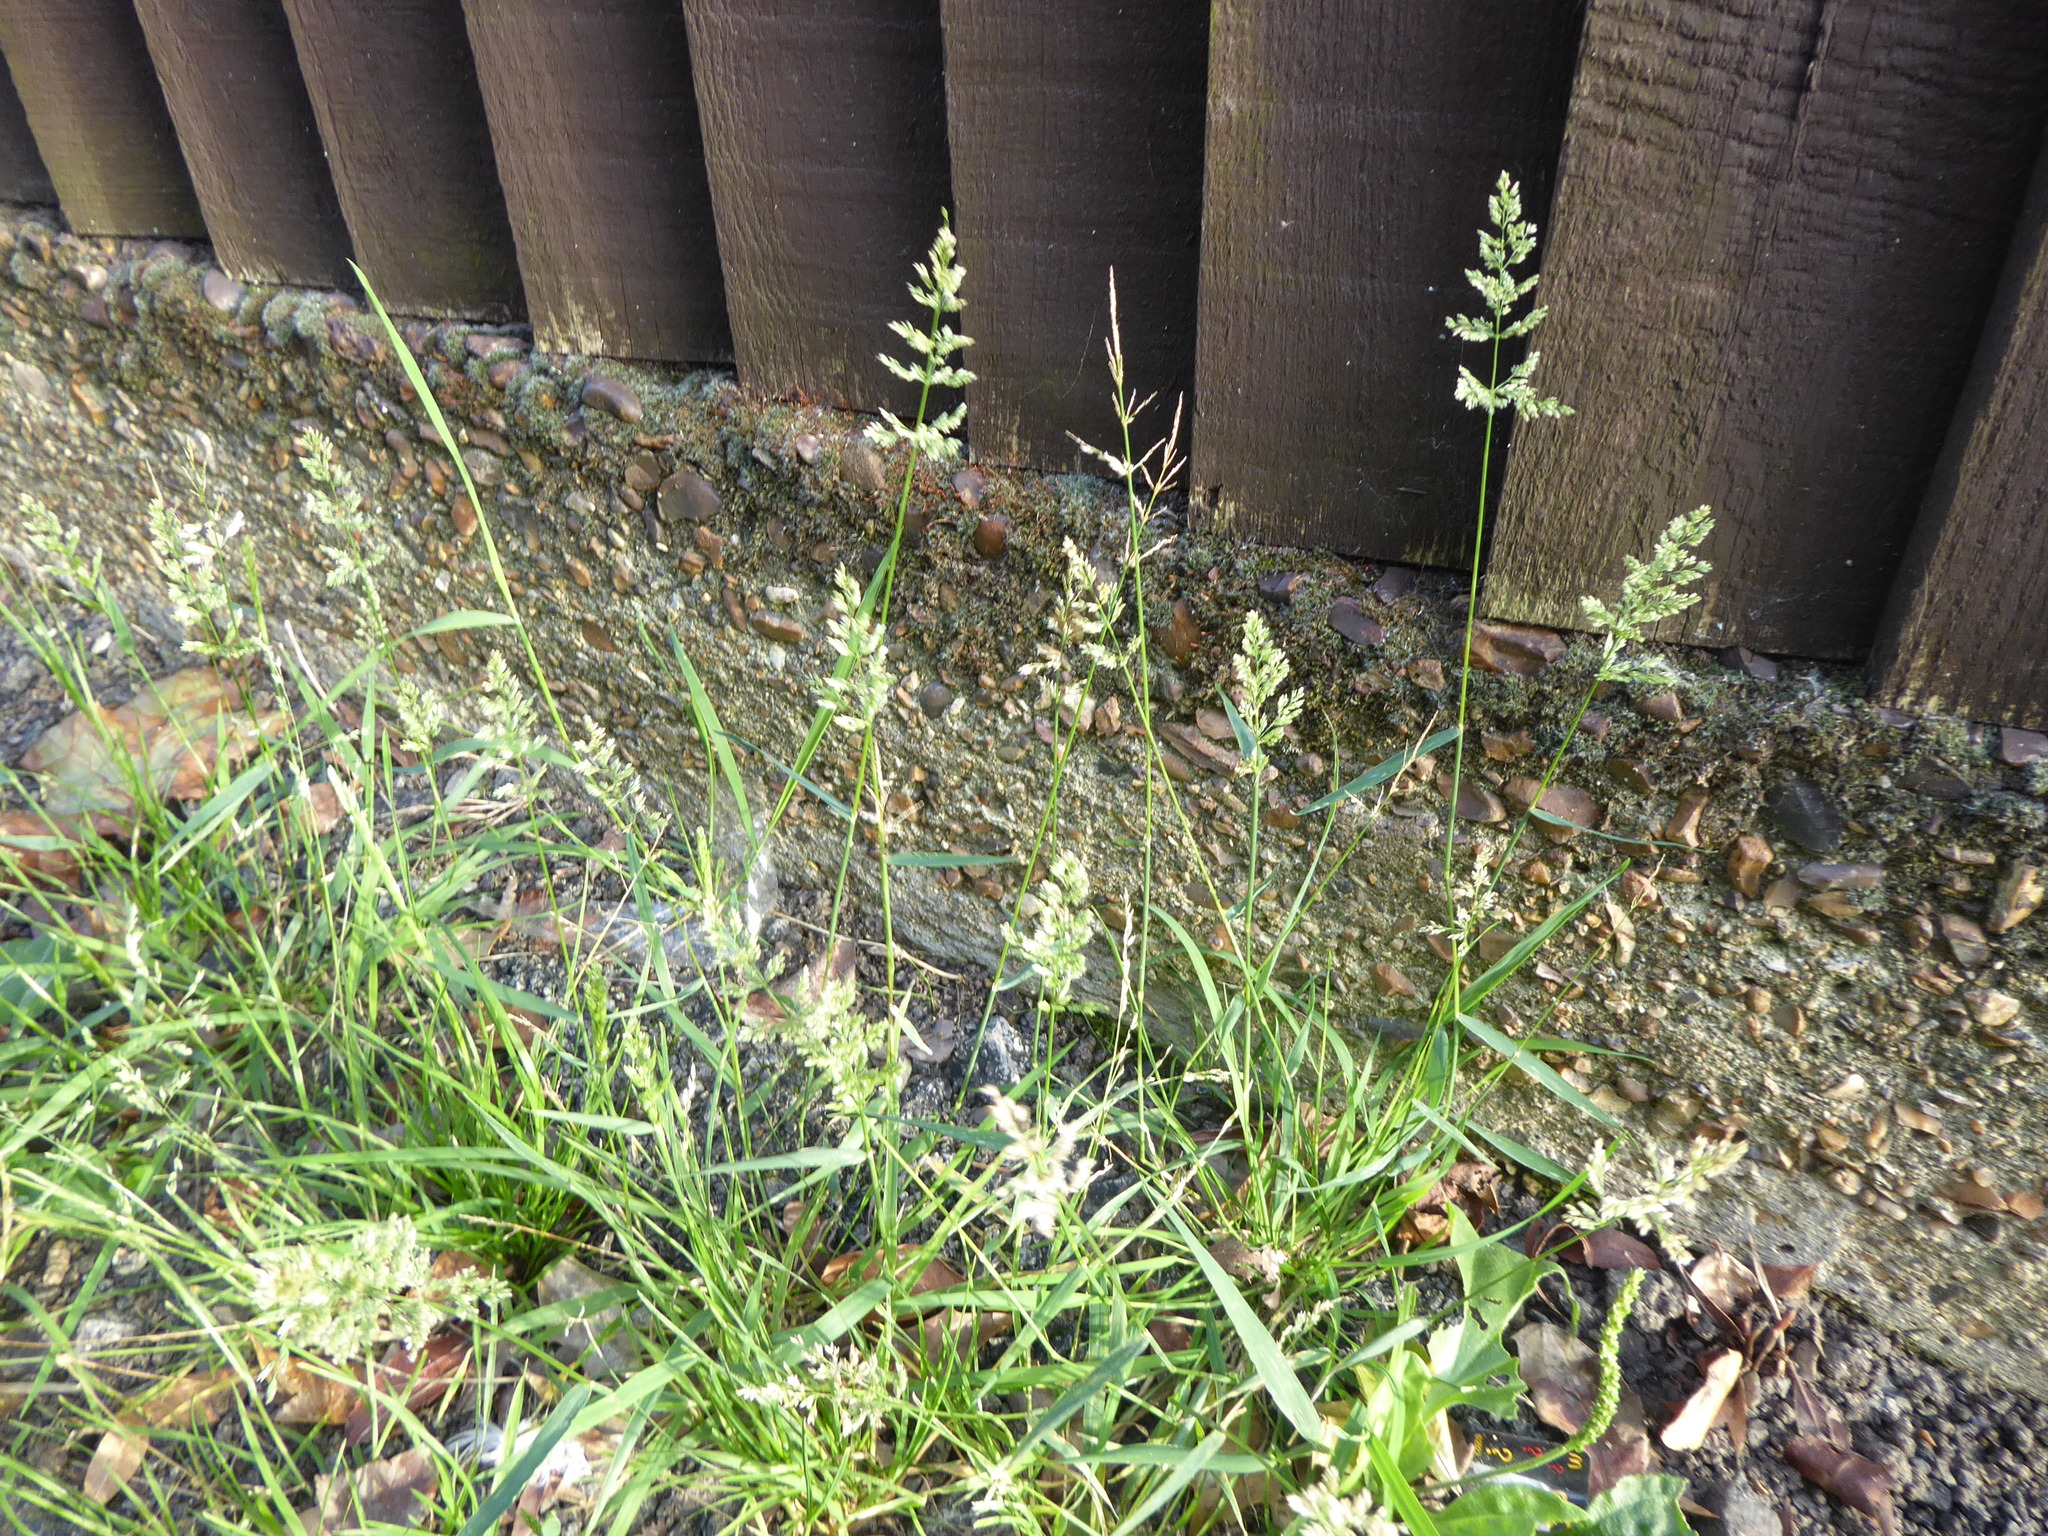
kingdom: Plantae
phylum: Tracheophyta
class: Liliopsida
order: Poales
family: Poaceae
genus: Polypogon
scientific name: Polypogon viridis
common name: Water bent
